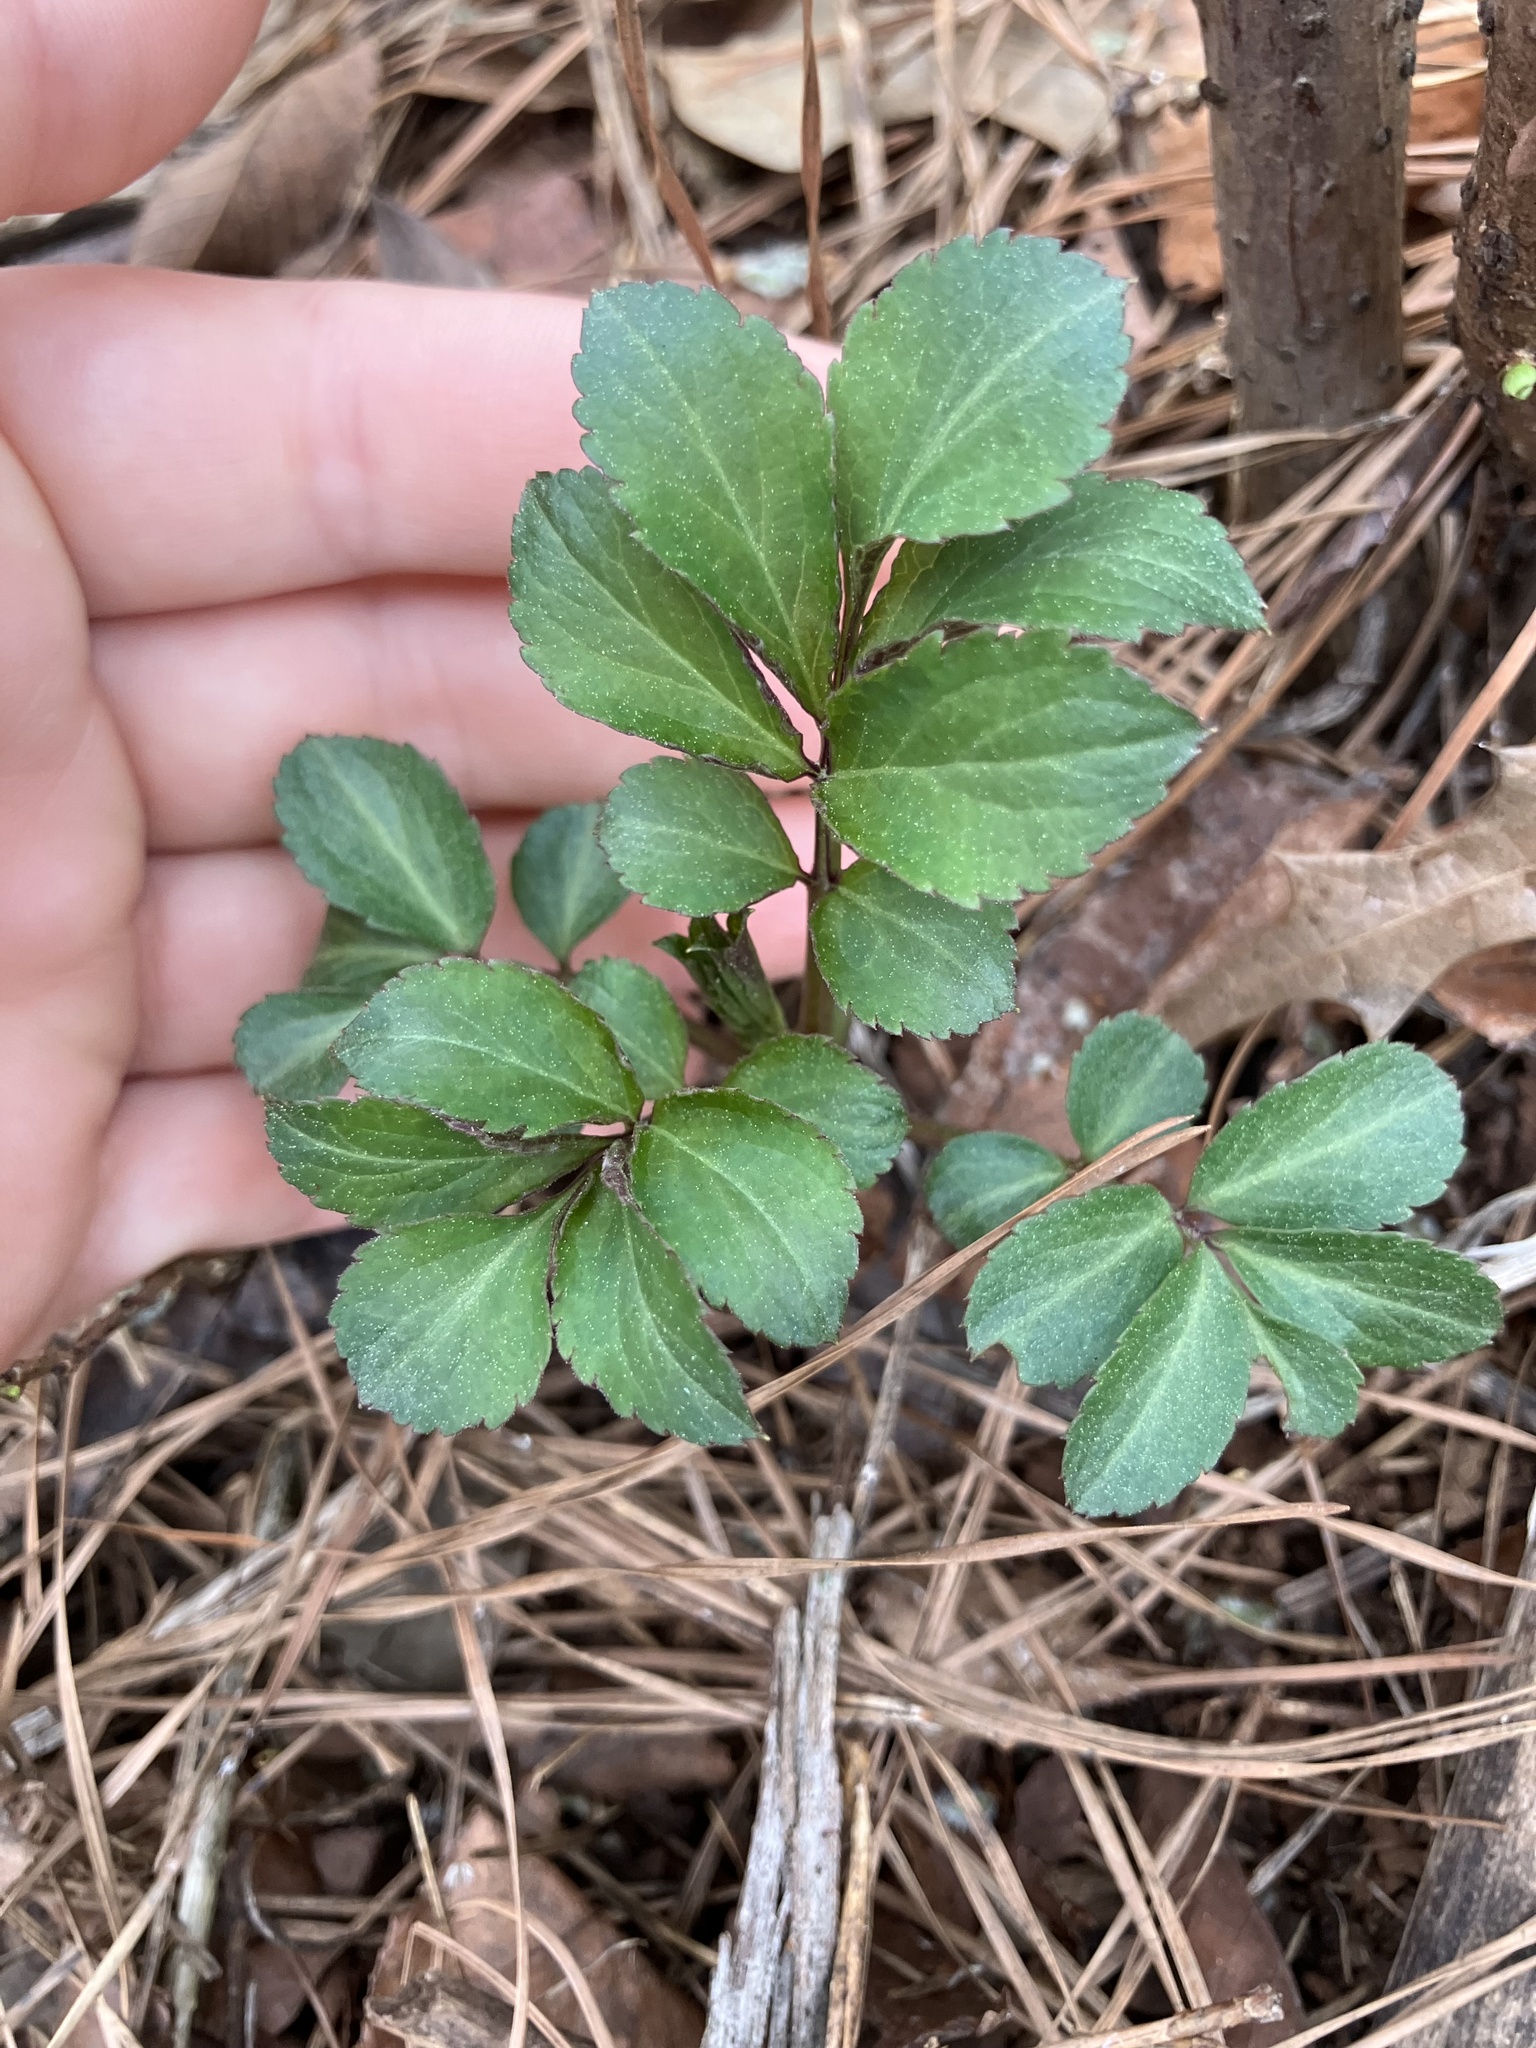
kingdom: Plantae
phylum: Tracheophyta
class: Magnoliopsida
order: Dipsacales
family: Viburnaceae
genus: Sambucus
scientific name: Sambucus canadensis
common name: American elder
